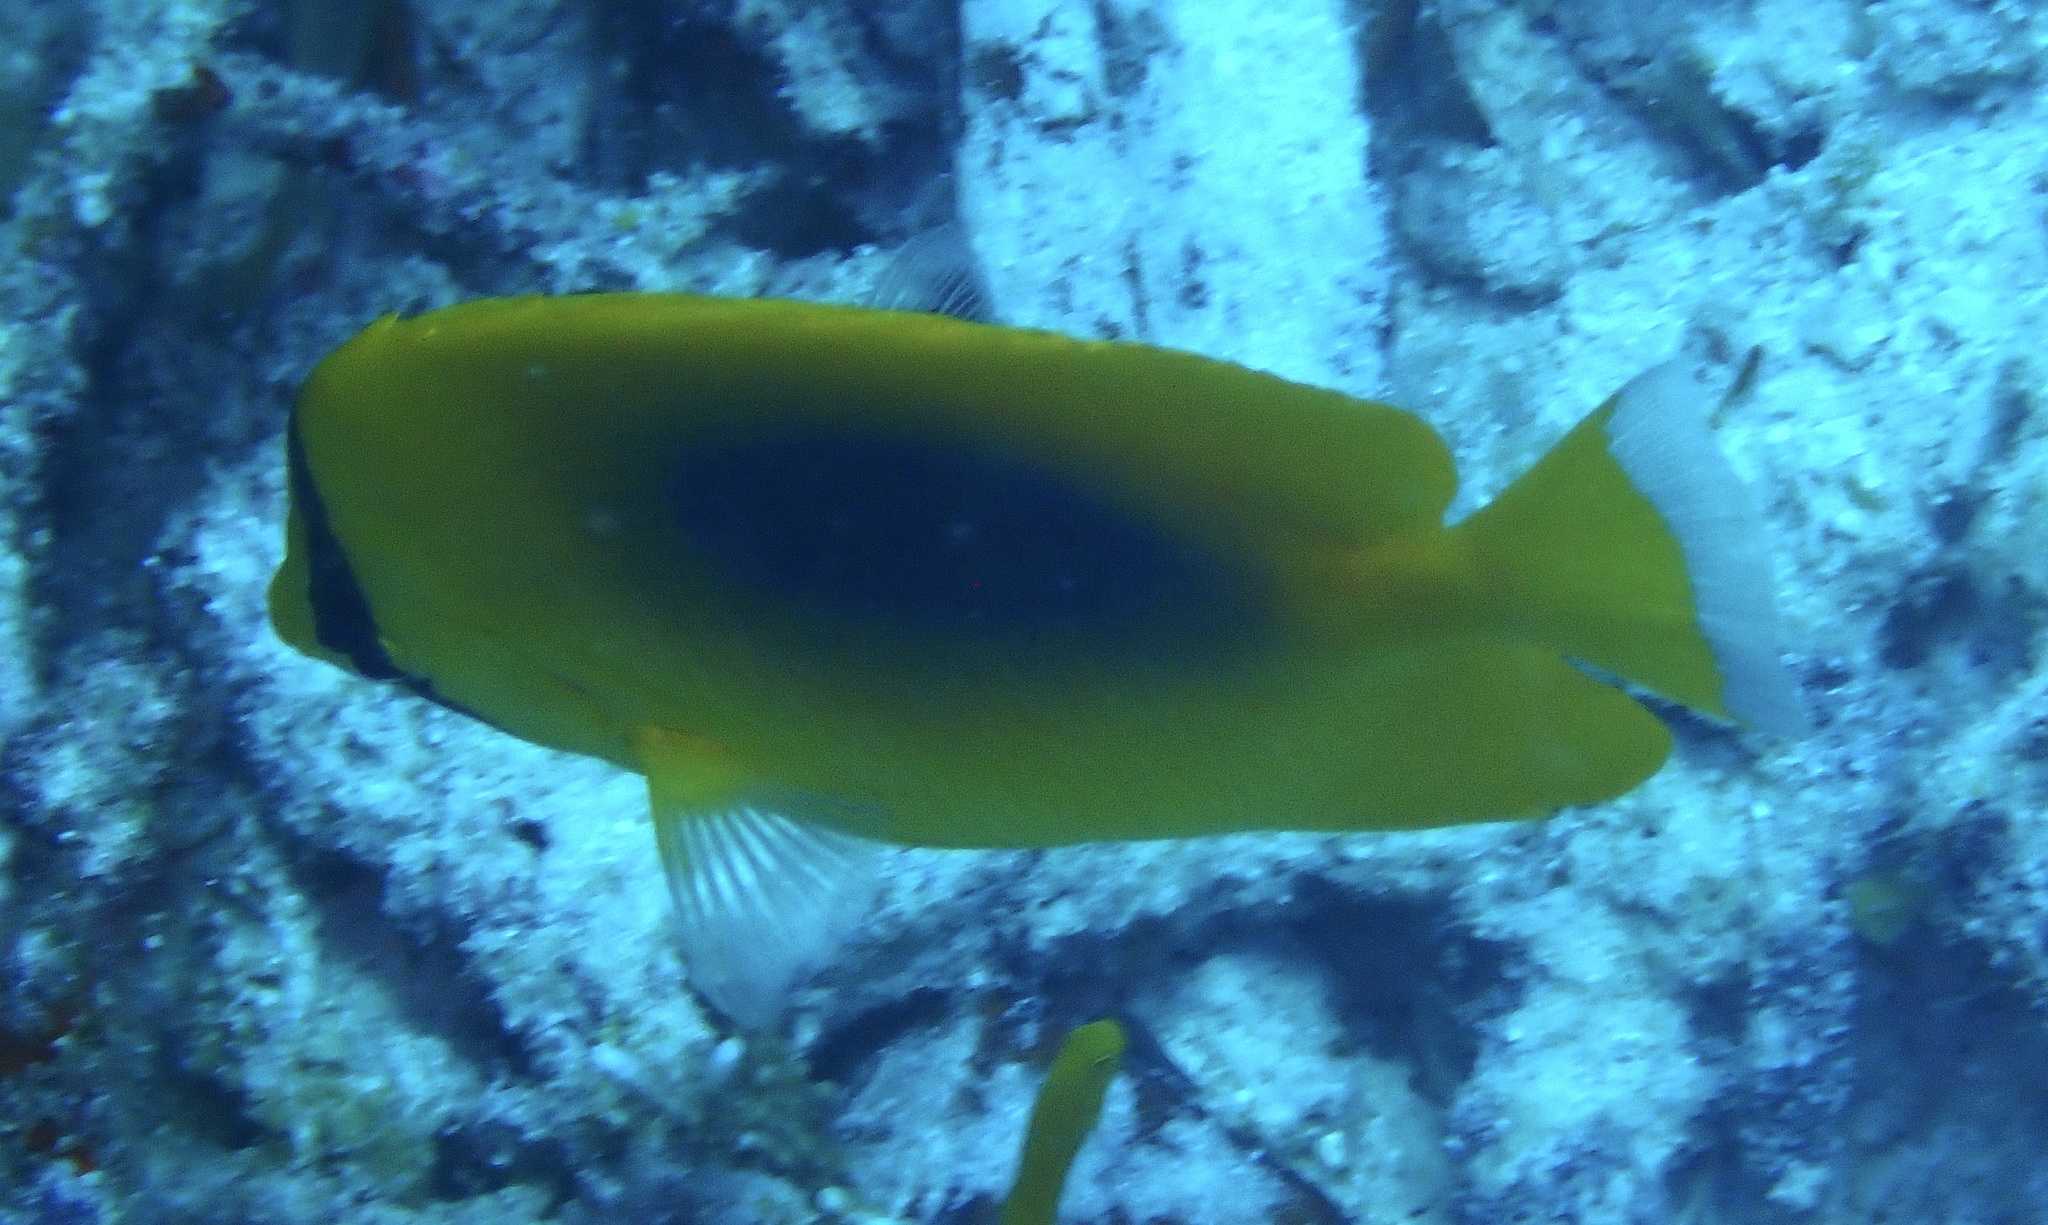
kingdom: Animalia
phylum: Chordata
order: Perciformes
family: Chaetodontidae
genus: Chaetodon
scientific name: Chaetodon speculum
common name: Mirror butterflyfish
